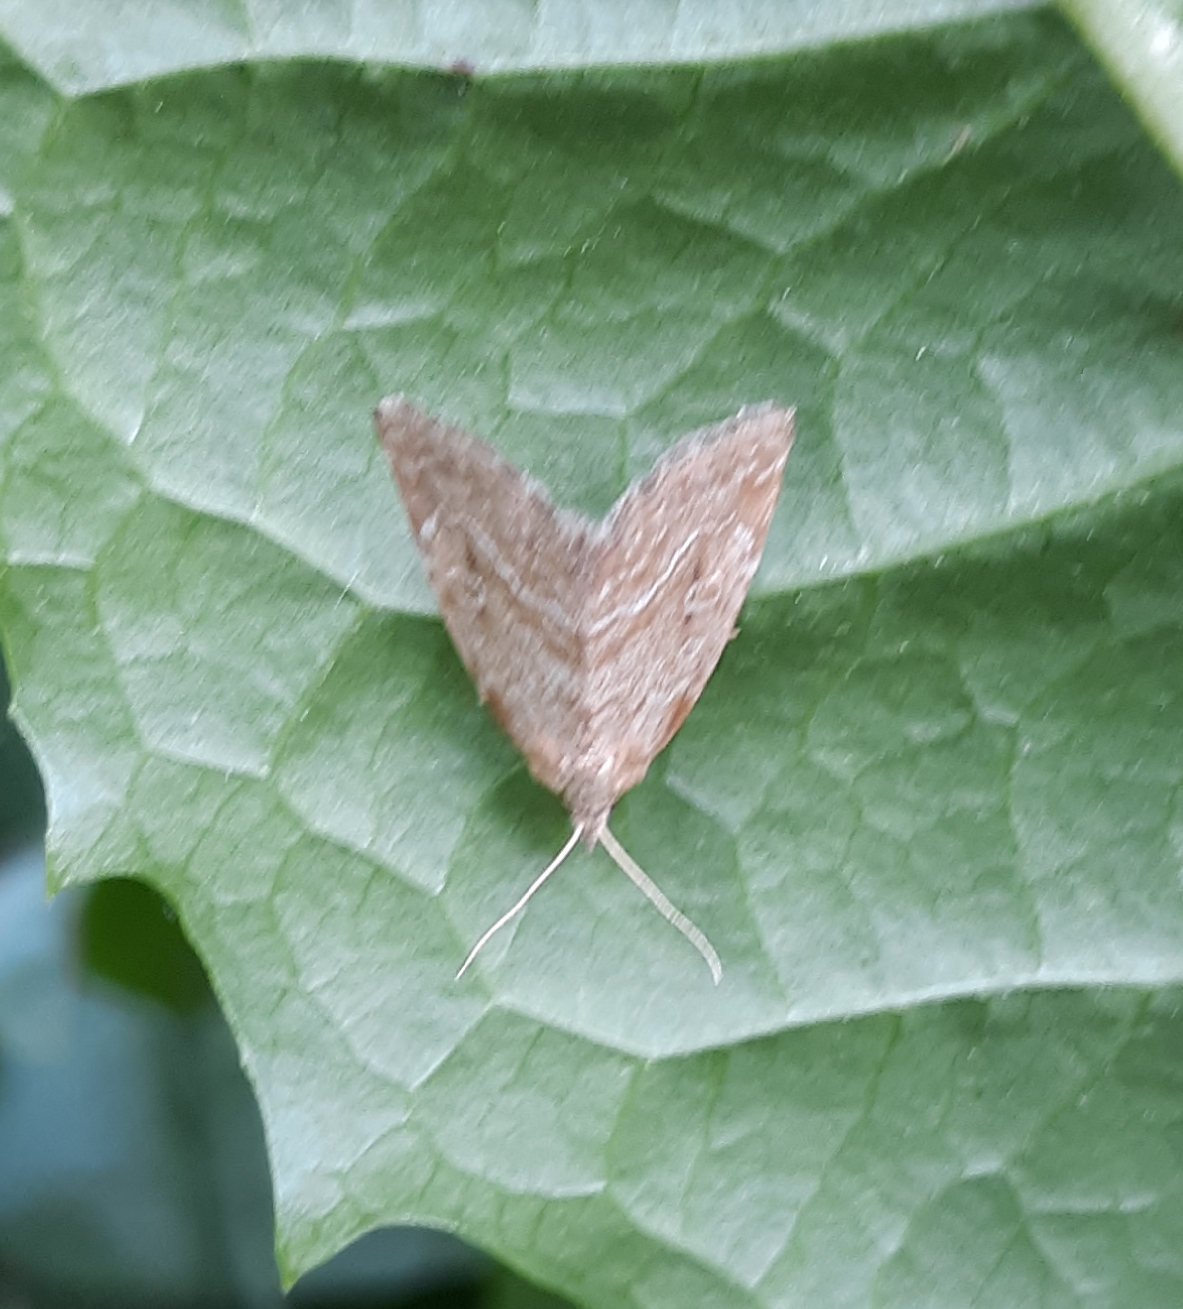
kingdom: Animalia
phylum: Arthropoda
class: Insecta
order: Lepidoptera
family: Noctuidae
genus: Protodeltote
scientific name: Protodeltote albidula
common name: Pale glyph
